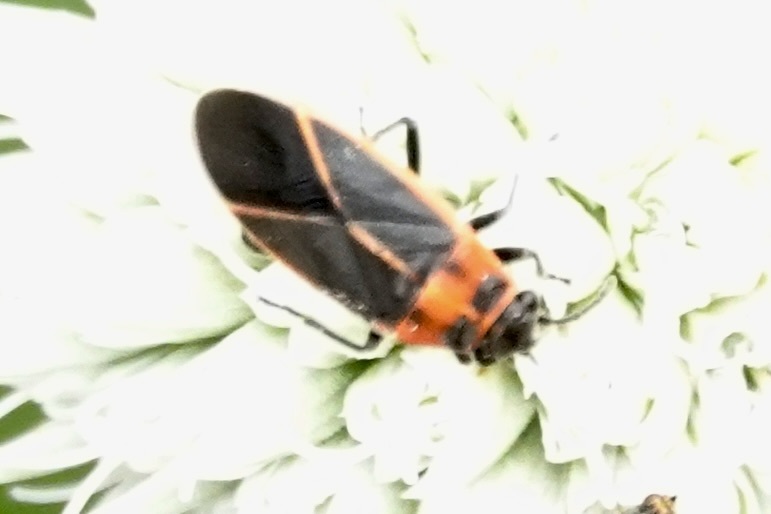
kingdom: Animalia
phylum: Arthropoda
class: Insecta
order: Hemiptera
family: Lygaeidae
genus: Ochrimnus
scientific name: Ochrimnus lineoloides
